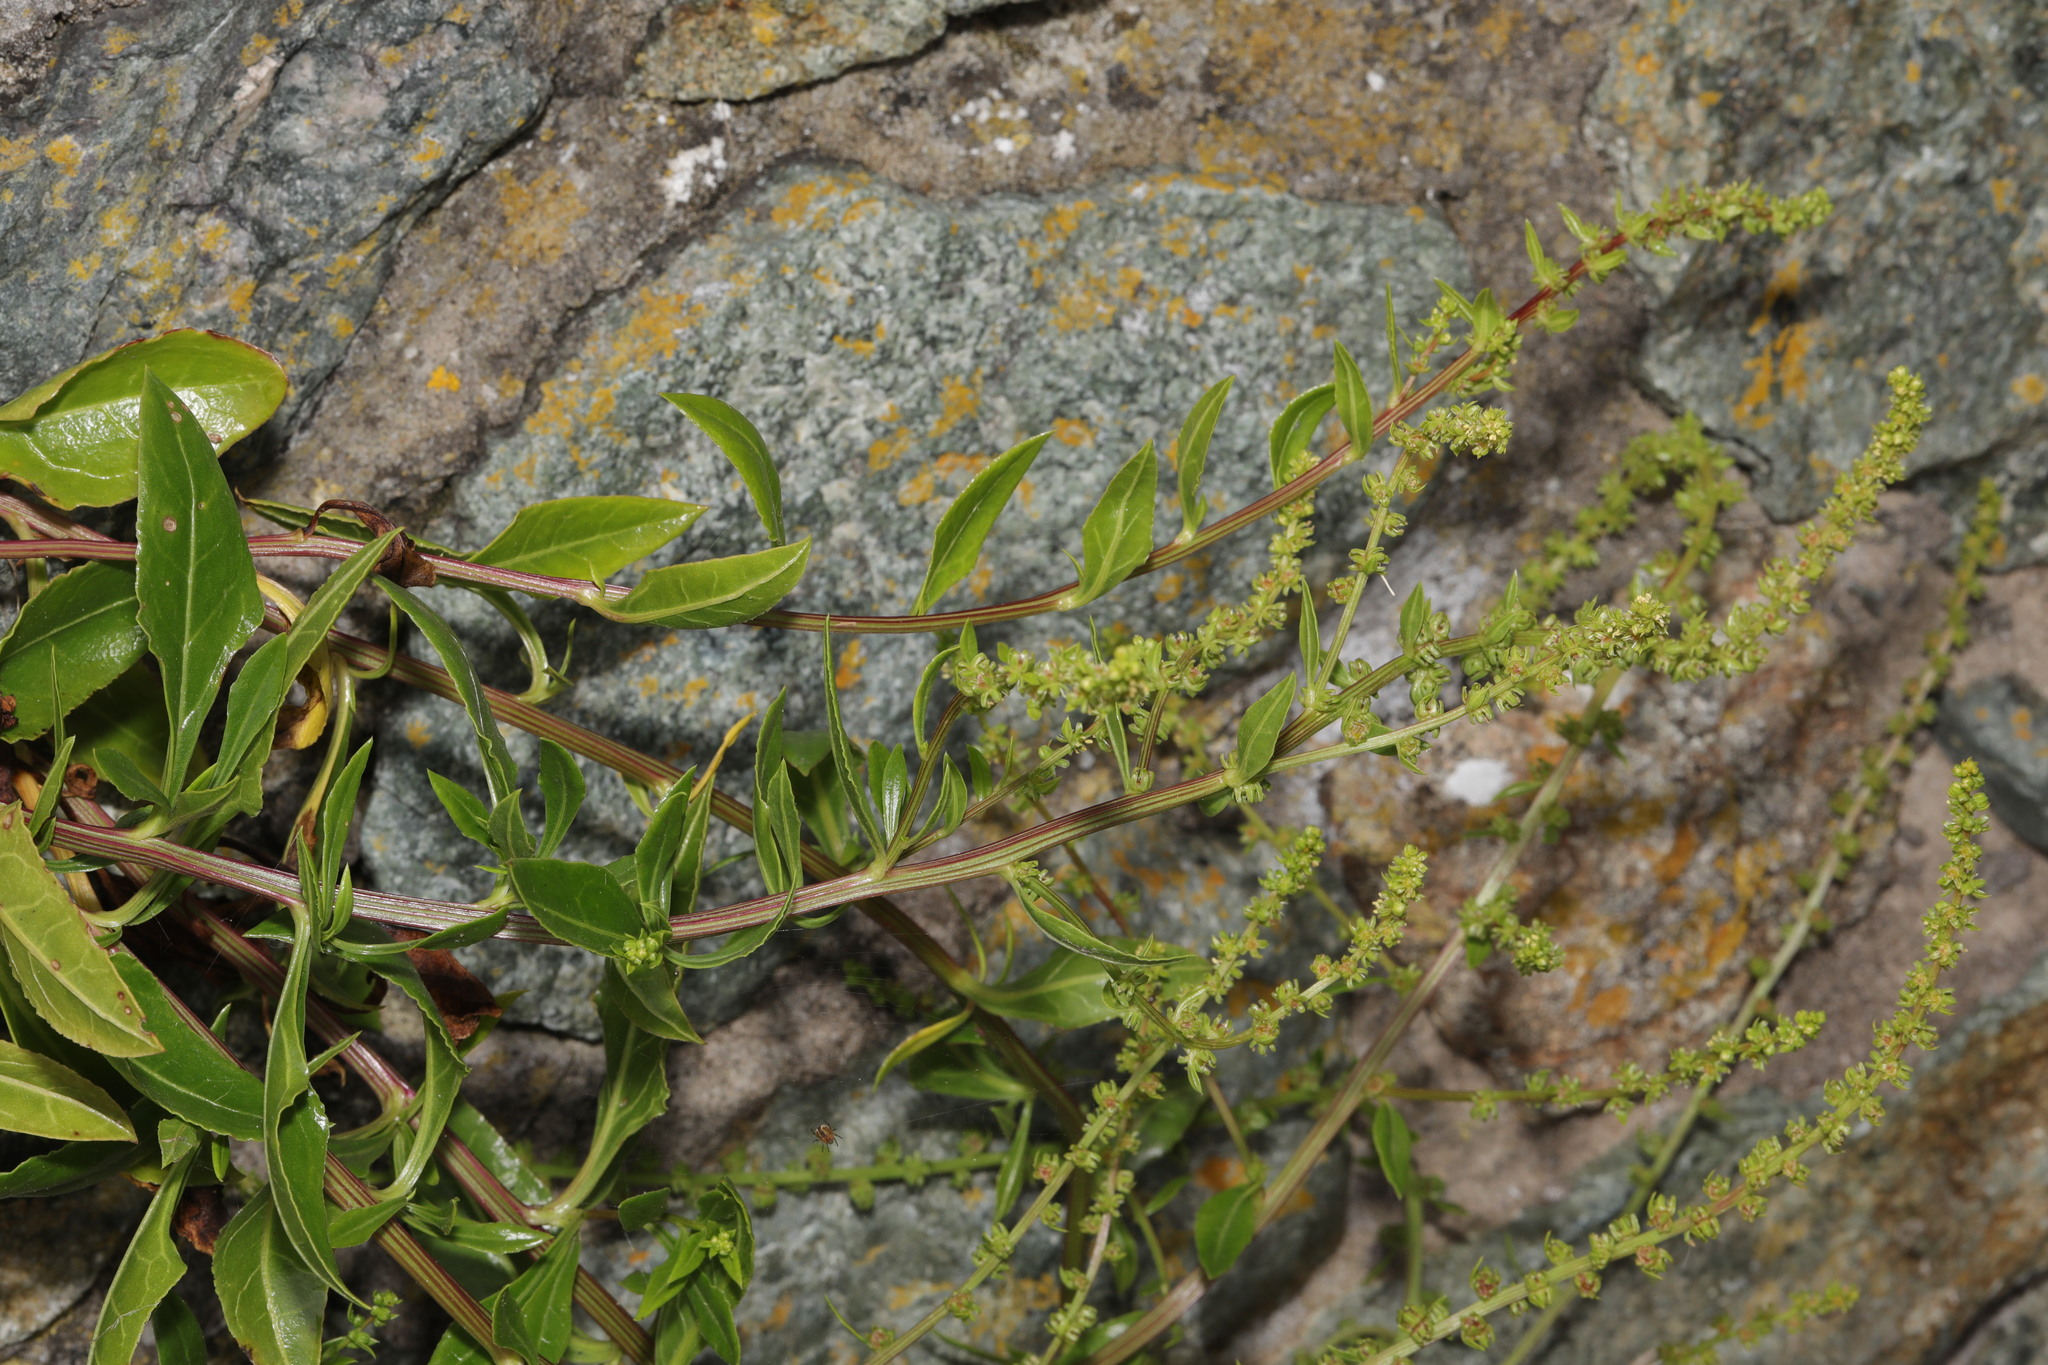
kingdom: Plantae
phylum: Tracheophyta
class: Magnoliopsida
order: Caryophyllales
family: Amaranthaceae
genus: Beta
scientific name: Beta vulgaris
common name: Beet
